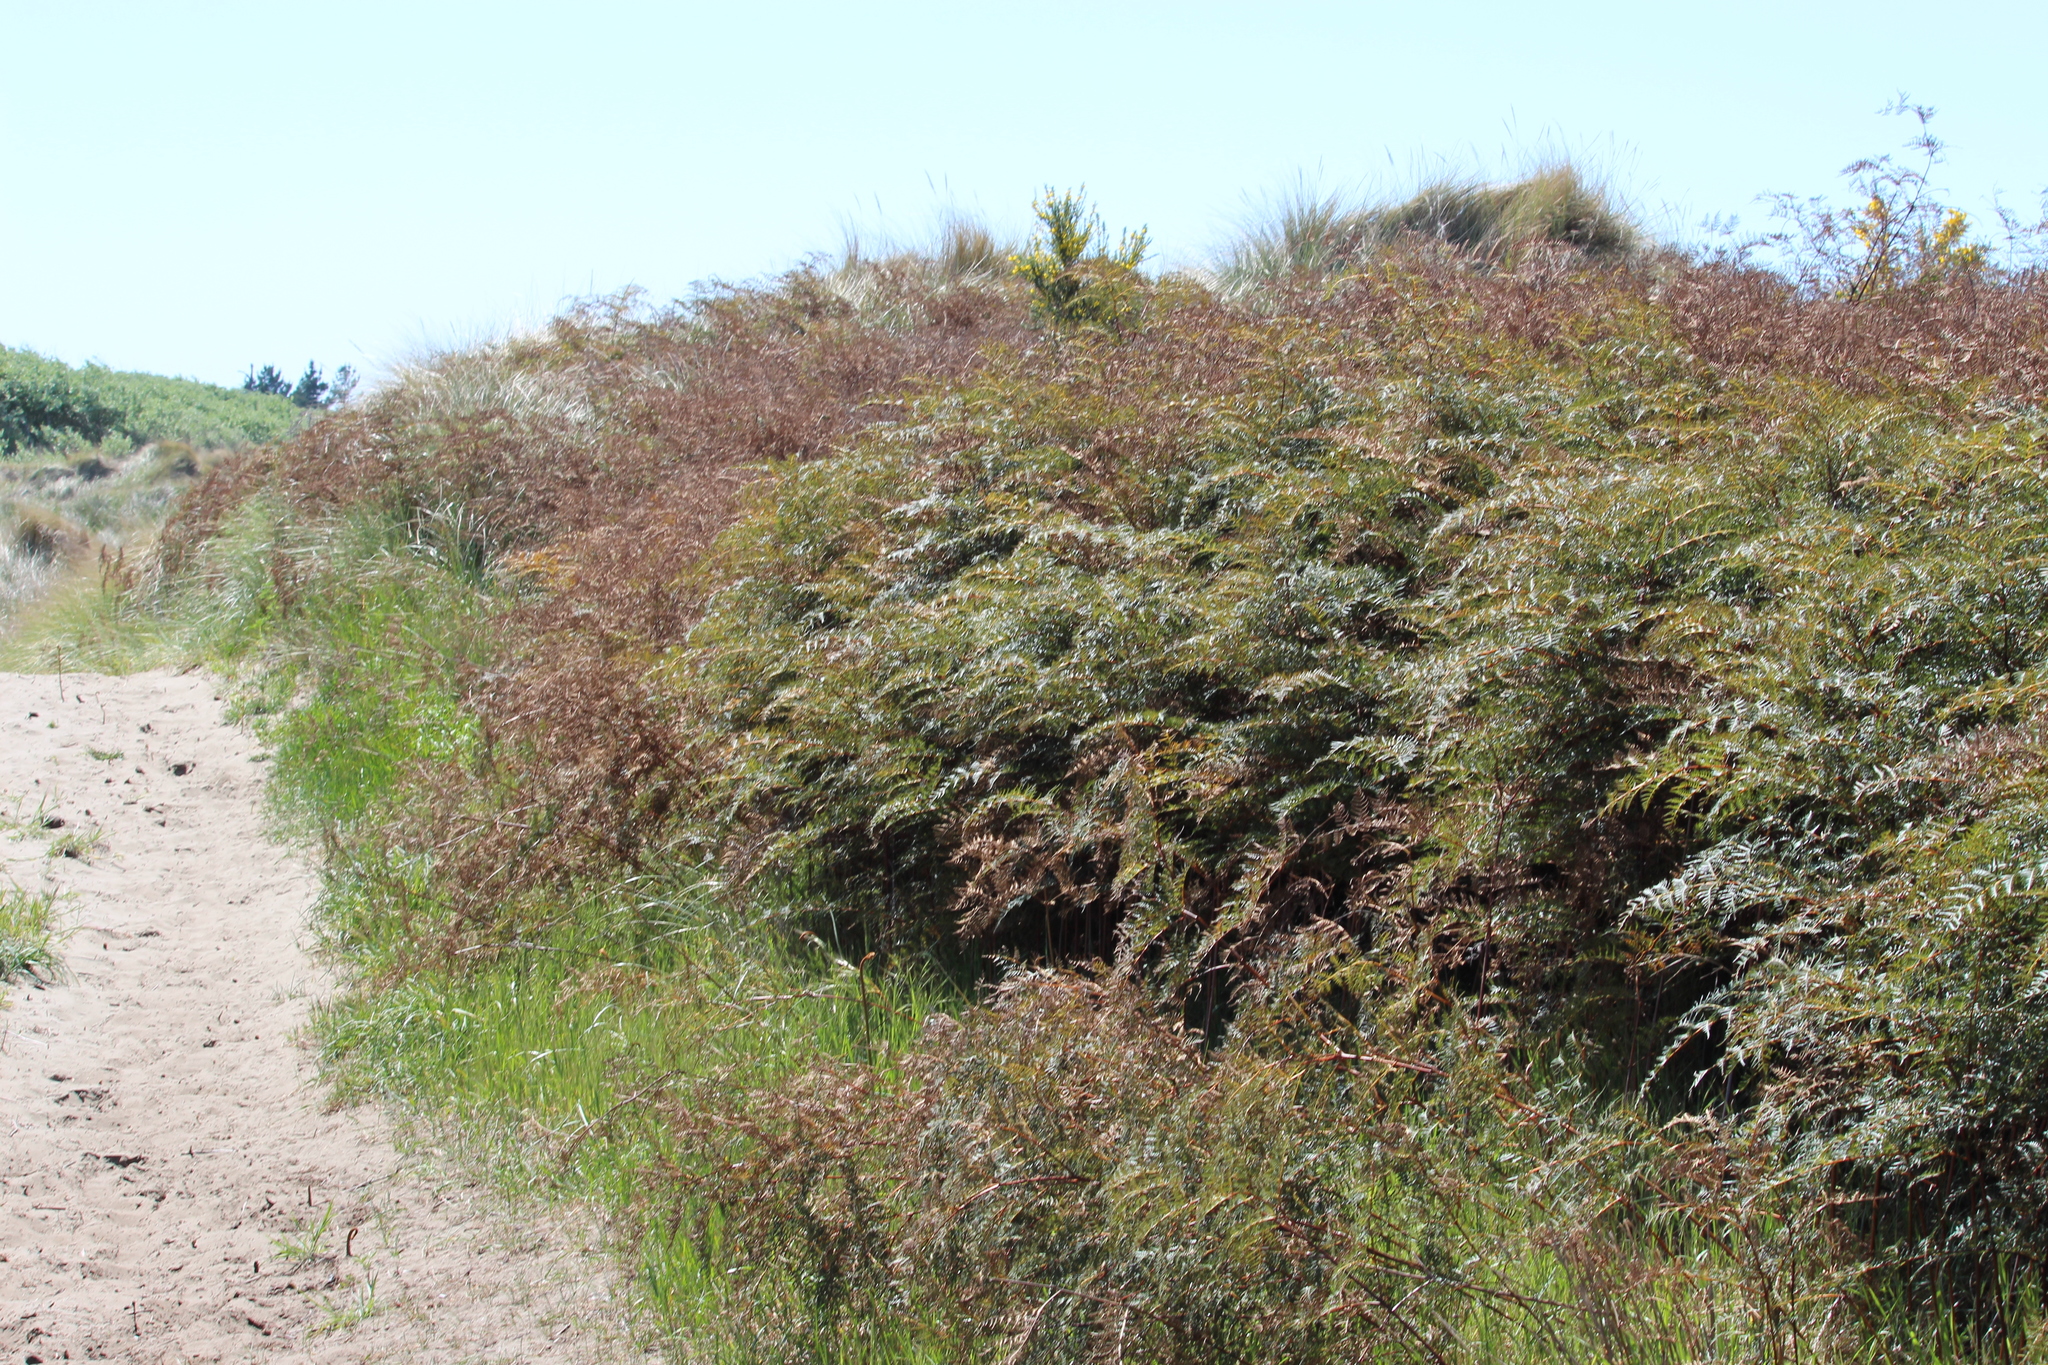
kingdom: Plantae
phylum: Tracheophyta
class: Polypodiopsida
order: Polypodiales
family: Dennstaedtiaceae
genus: Pteridium
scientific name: Pteridium esculentum
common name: Bracken fern
